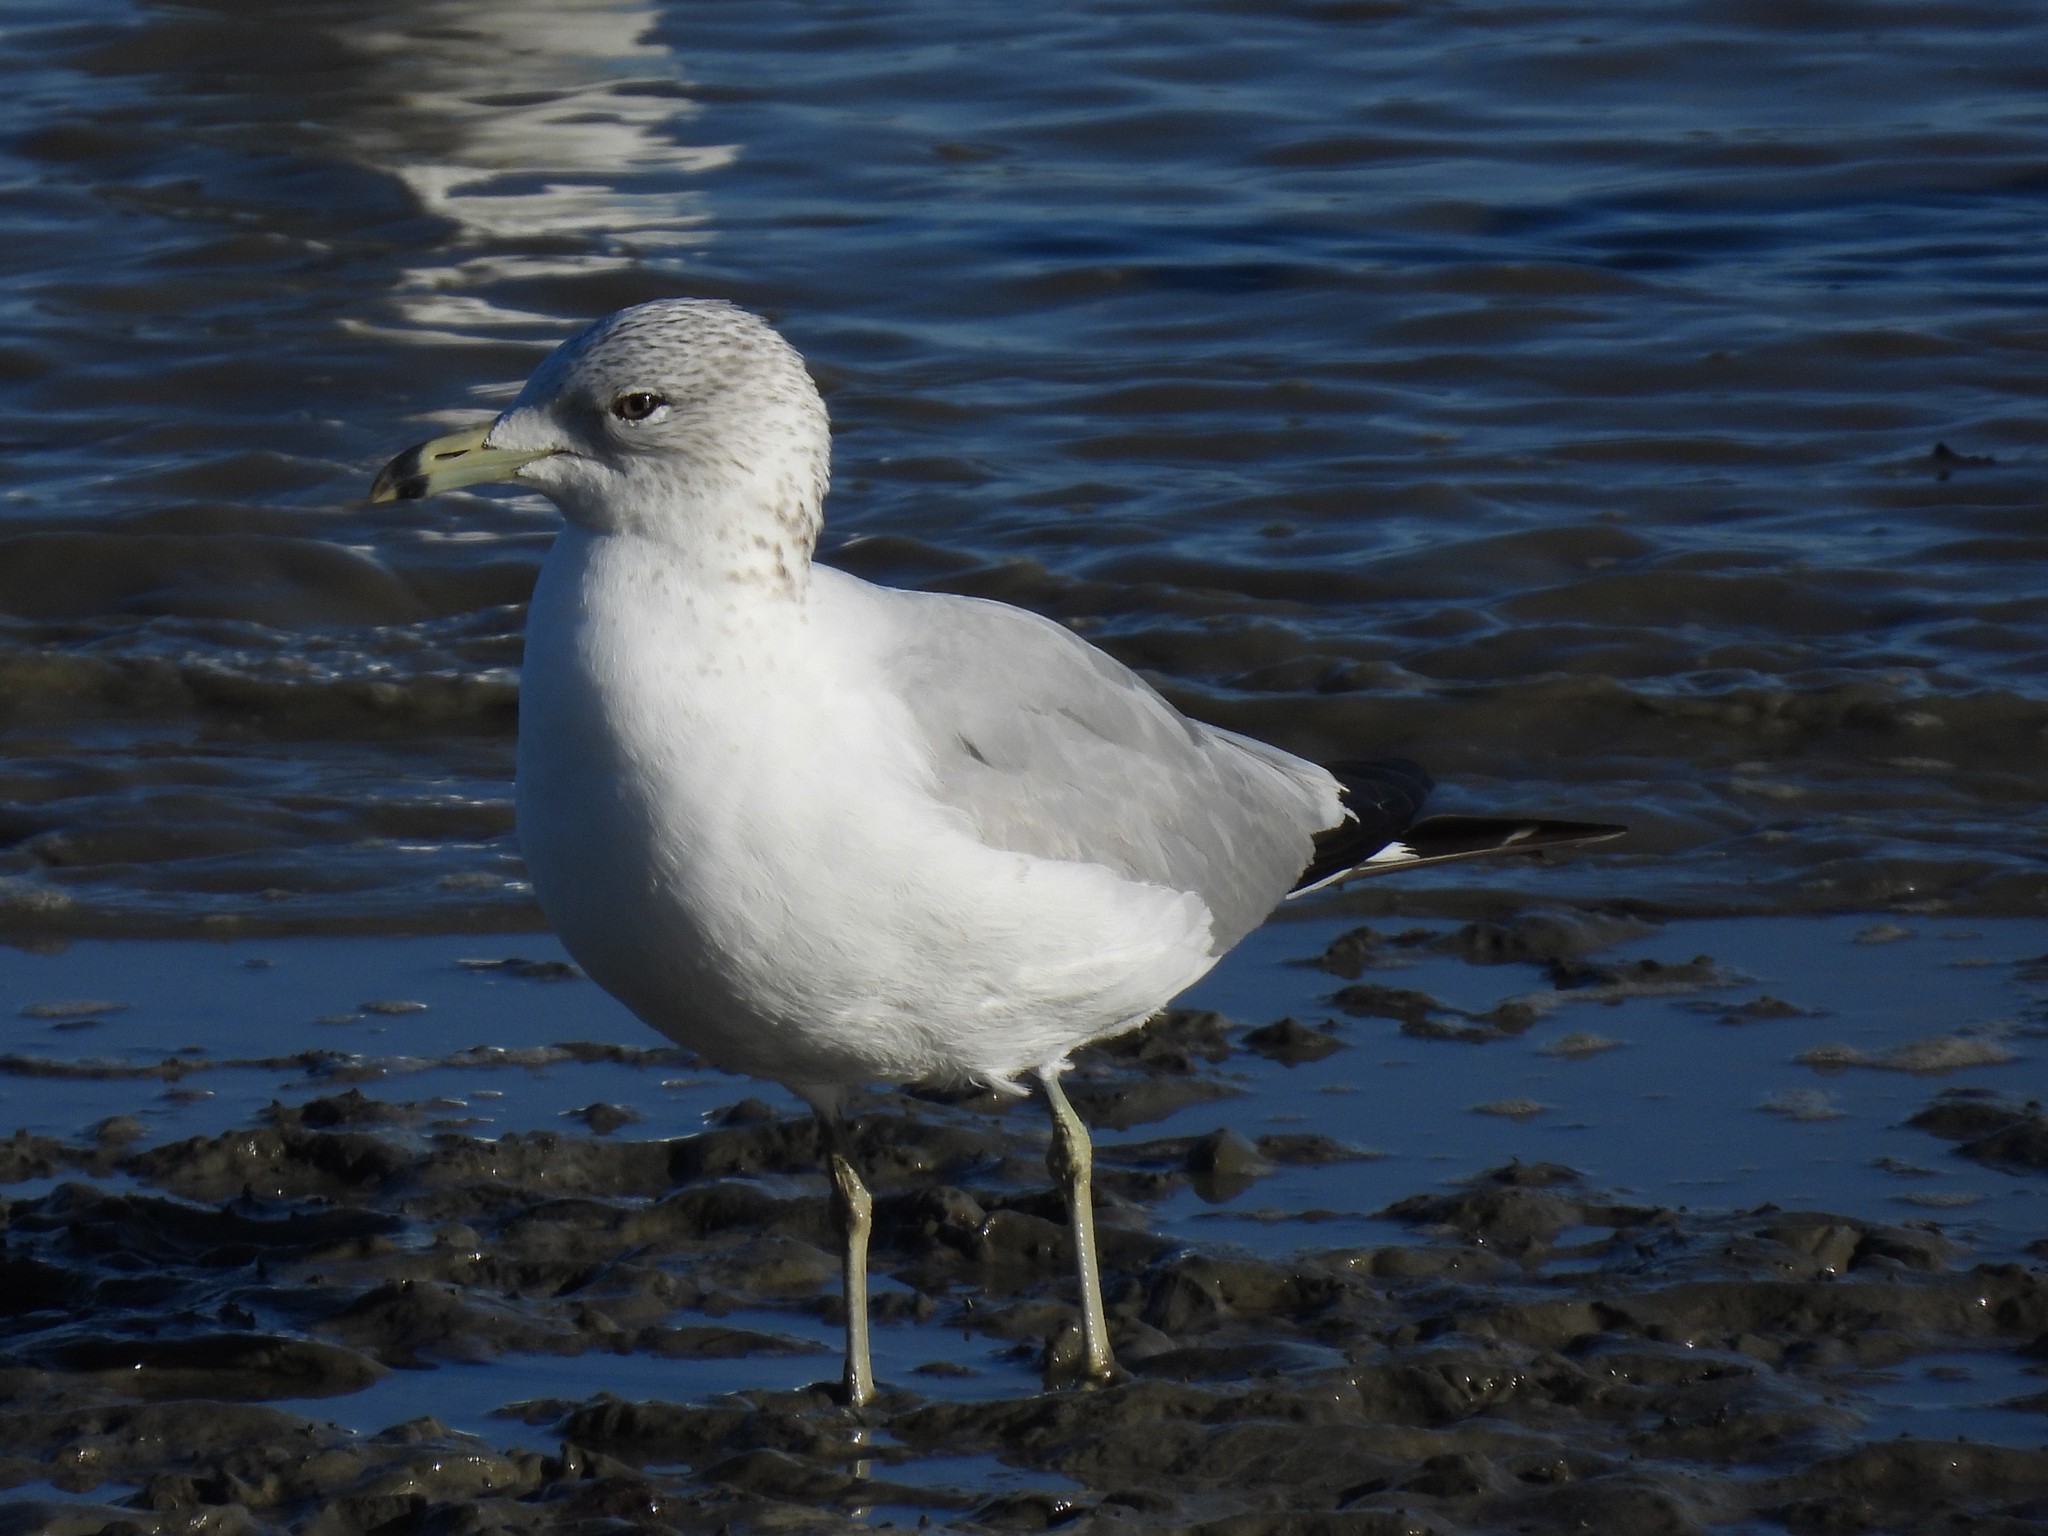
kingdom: Animalia
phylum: Chordata
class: Aves
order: Charadriiformes
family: Laridae
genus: Larus
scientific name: Larus delawarensis
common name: Ring-billed gull
